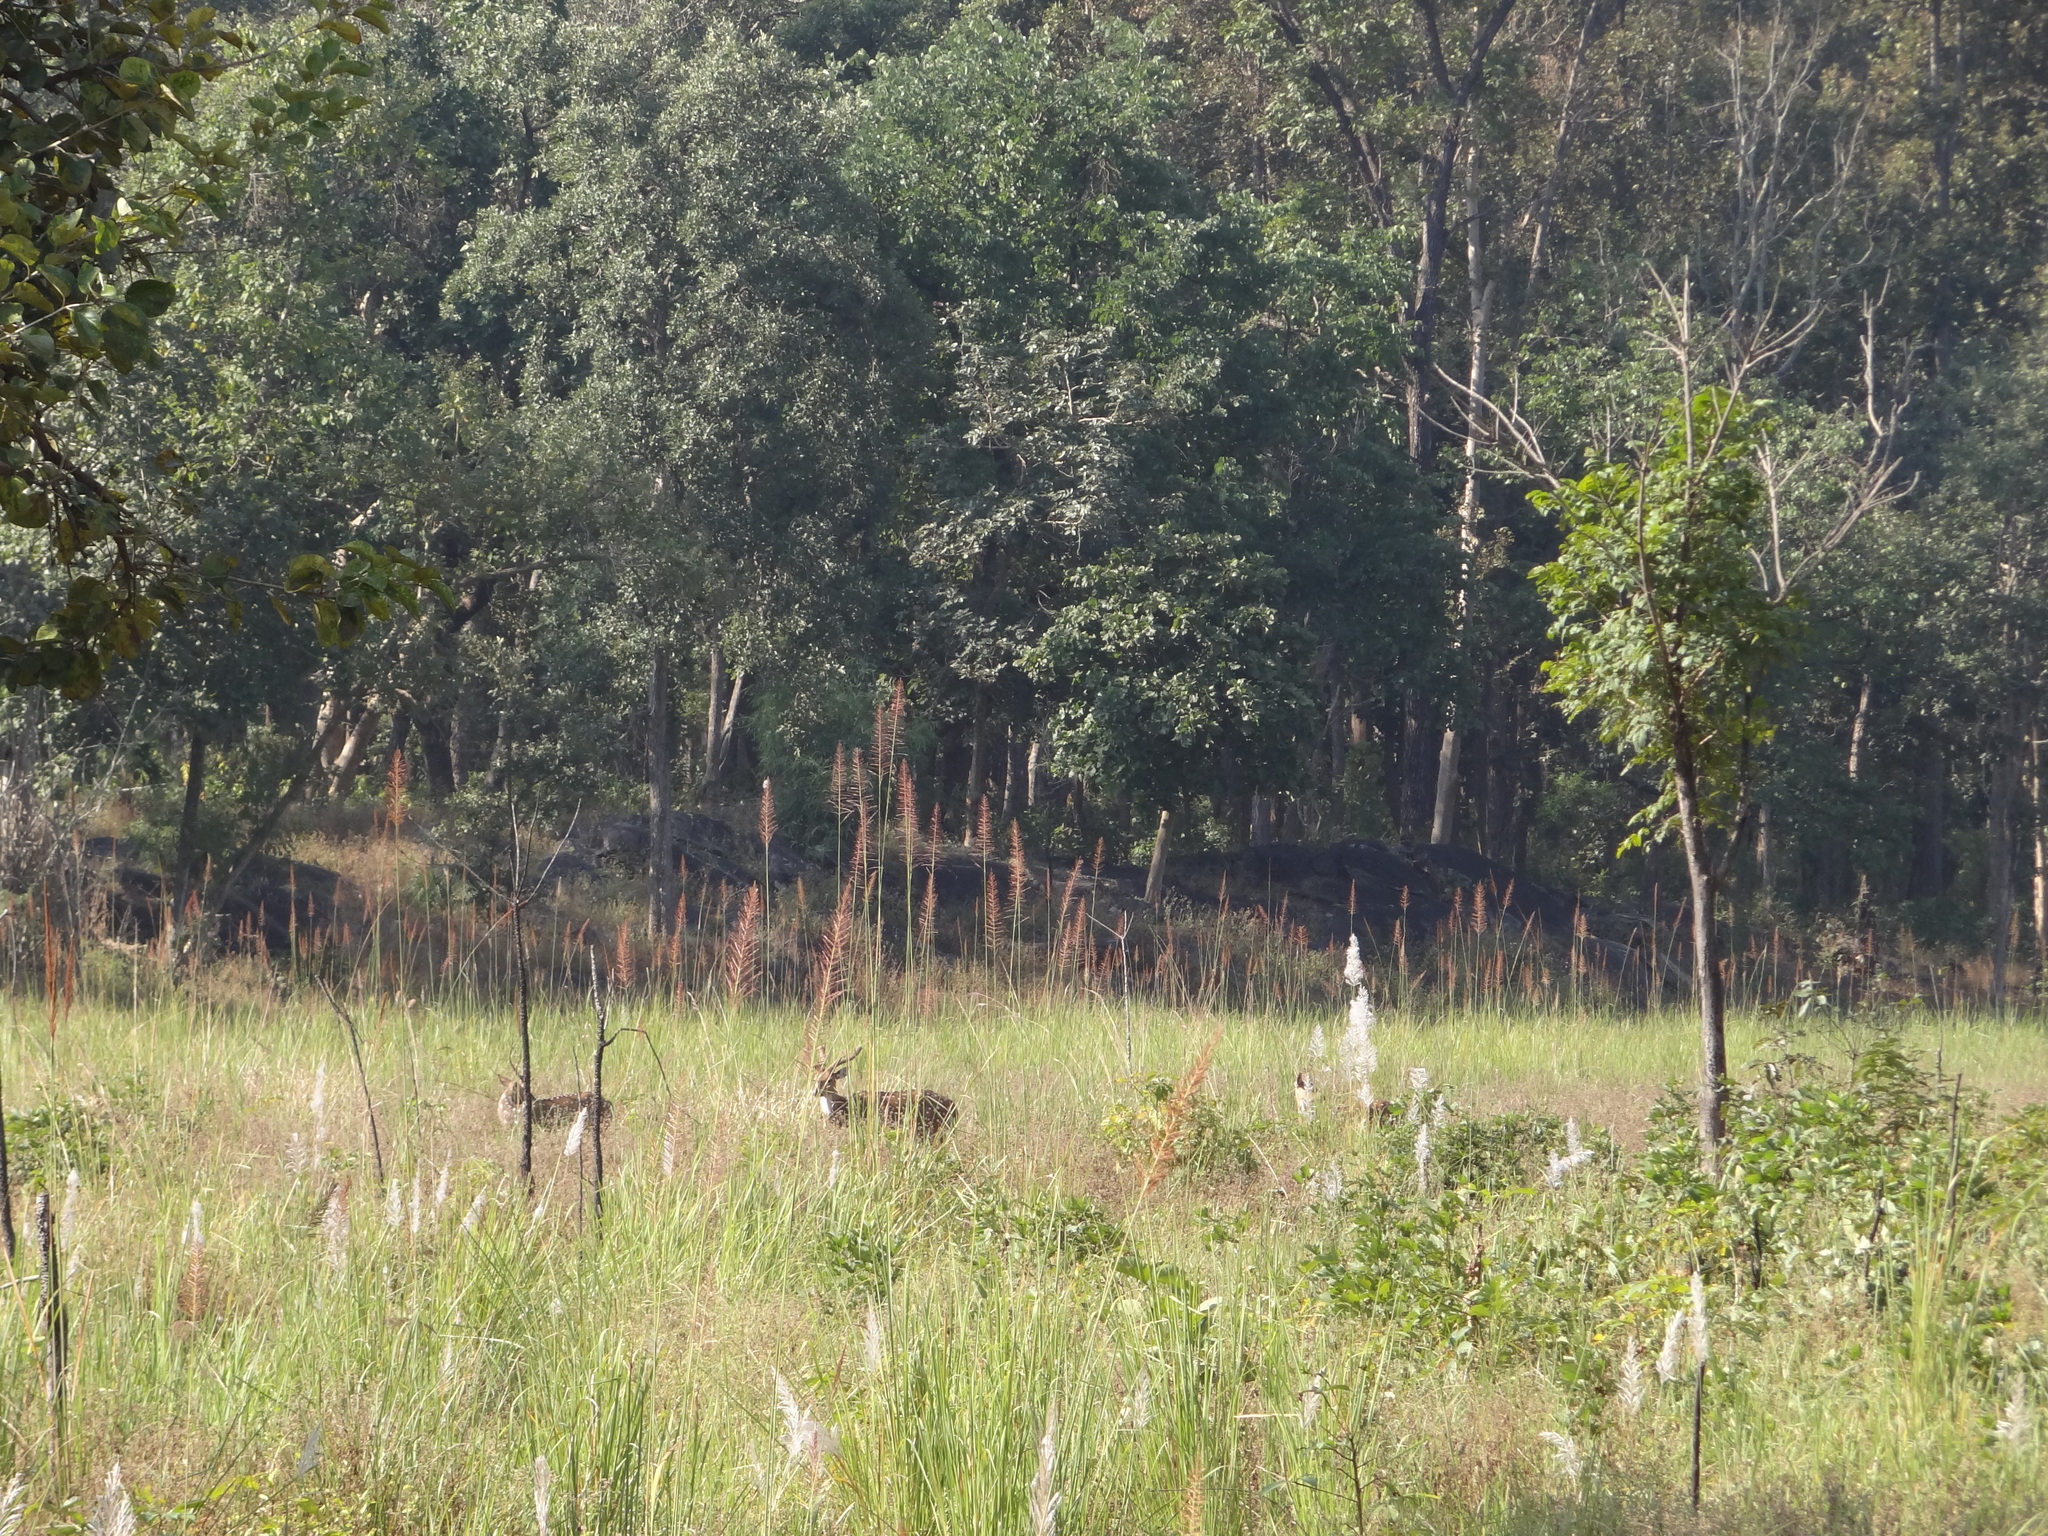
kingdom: Animalia
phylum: Chordata
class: Mammalia
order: Artiodactyla
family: Cervidae
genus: Axis
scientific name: Axis axis
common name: Chital
